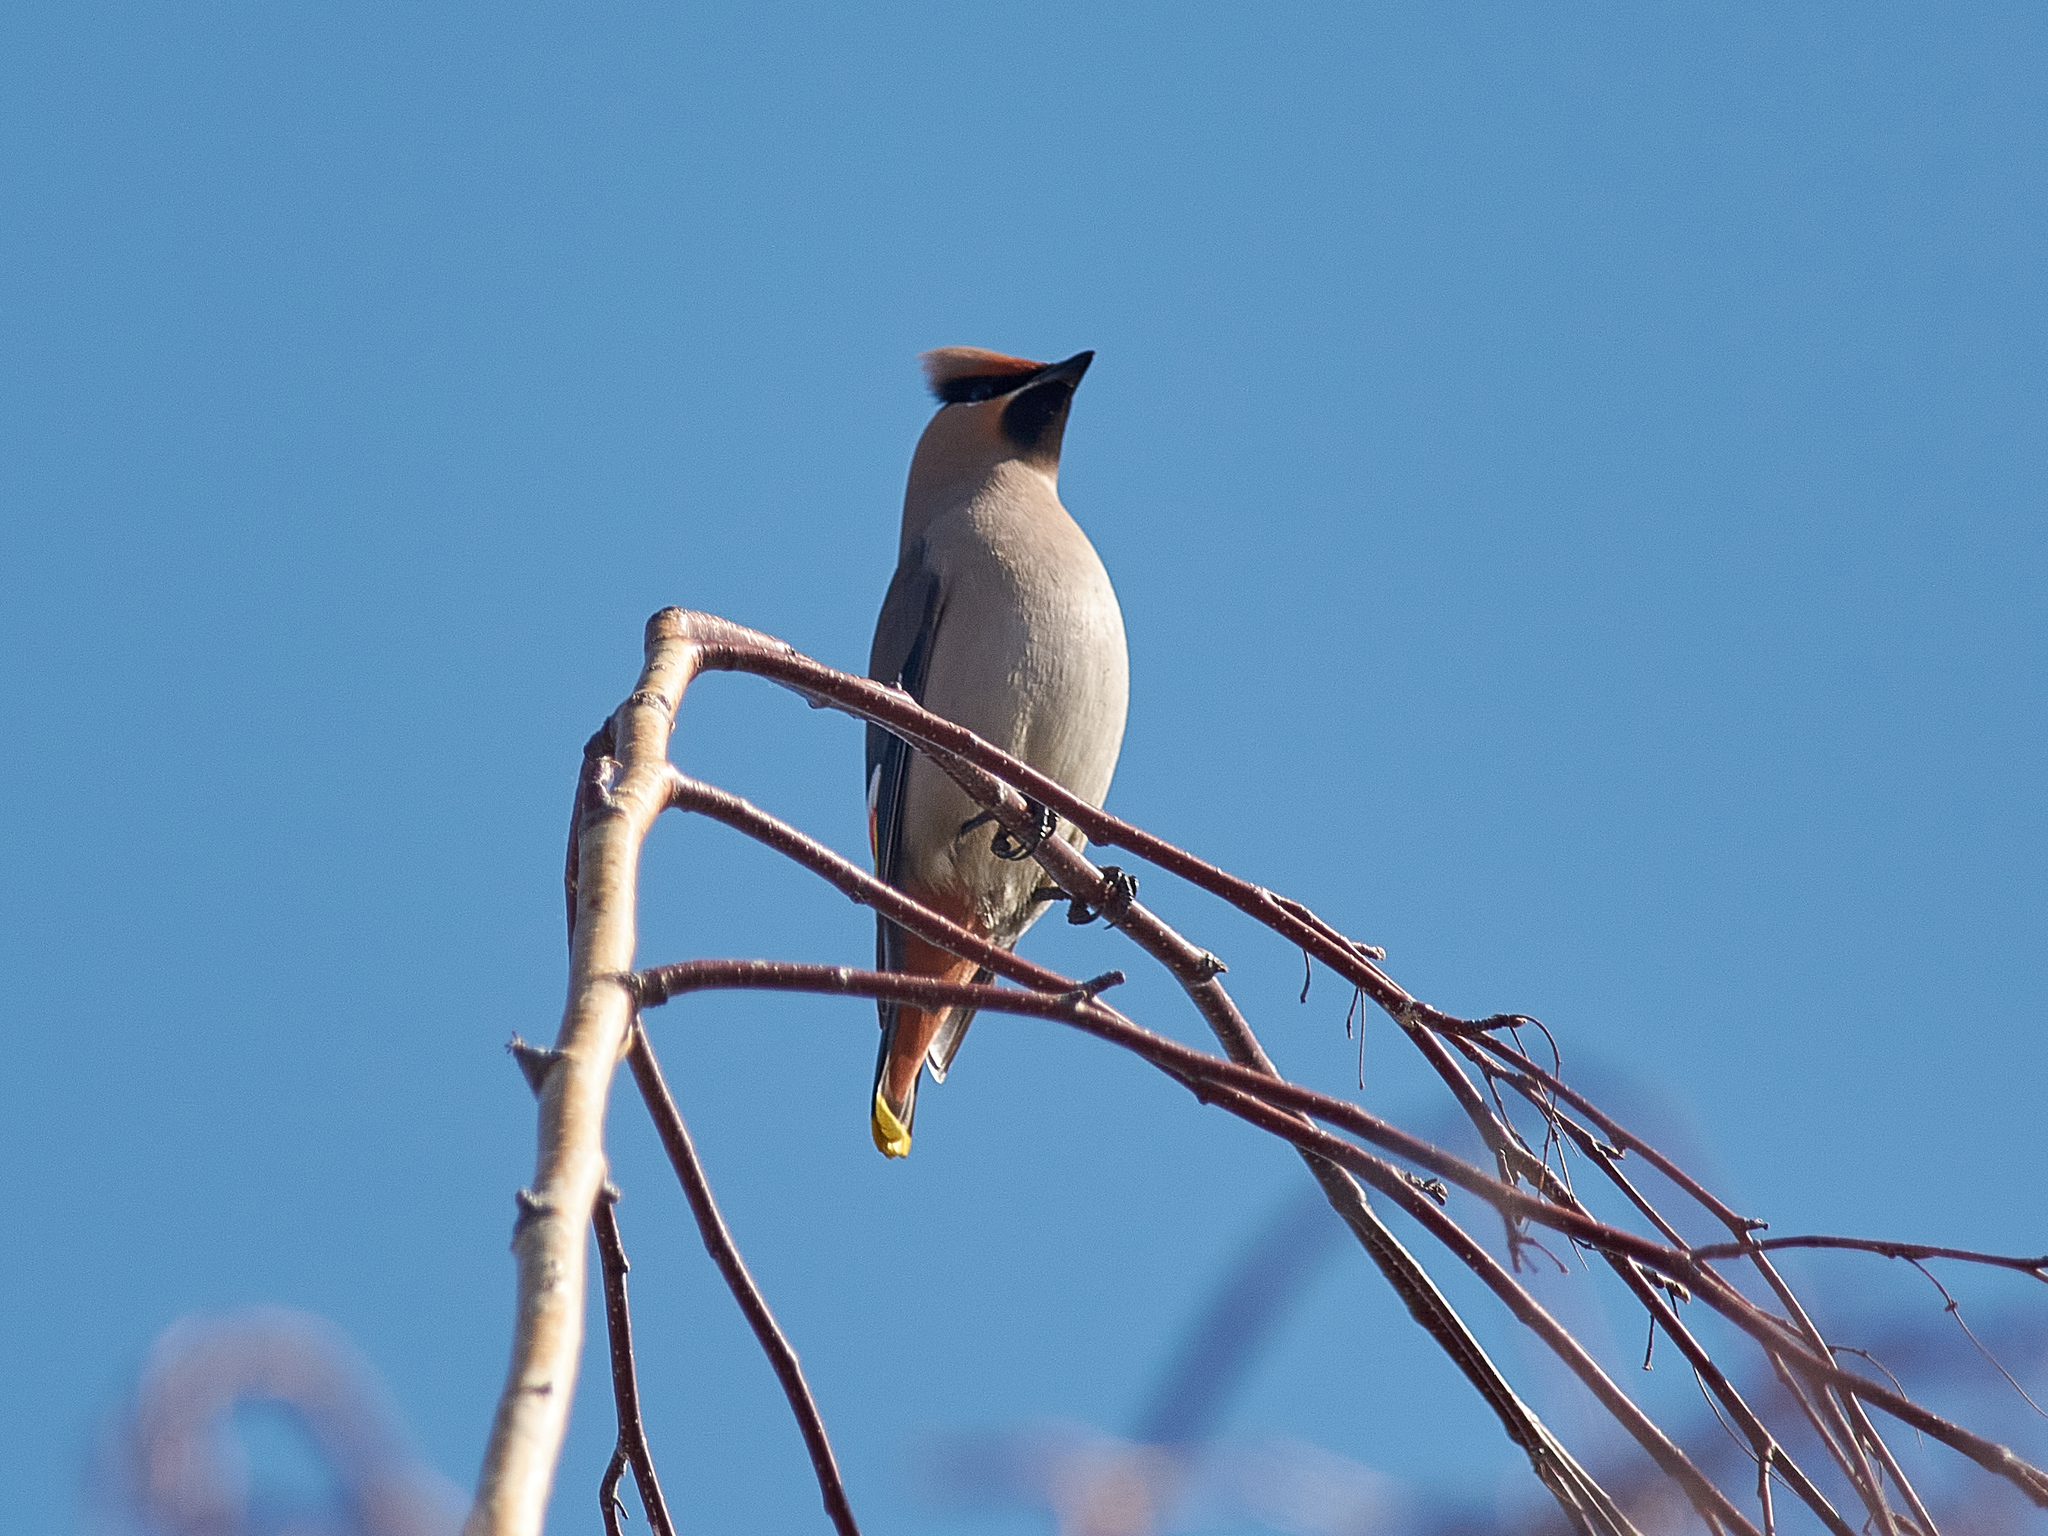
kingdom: Animalia
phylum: Chordata
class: Aves
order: Passeriformes
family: Bombycillidae
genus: Bombycilla
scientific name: Bombycilla garrulus
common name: Bohemian waxwing
